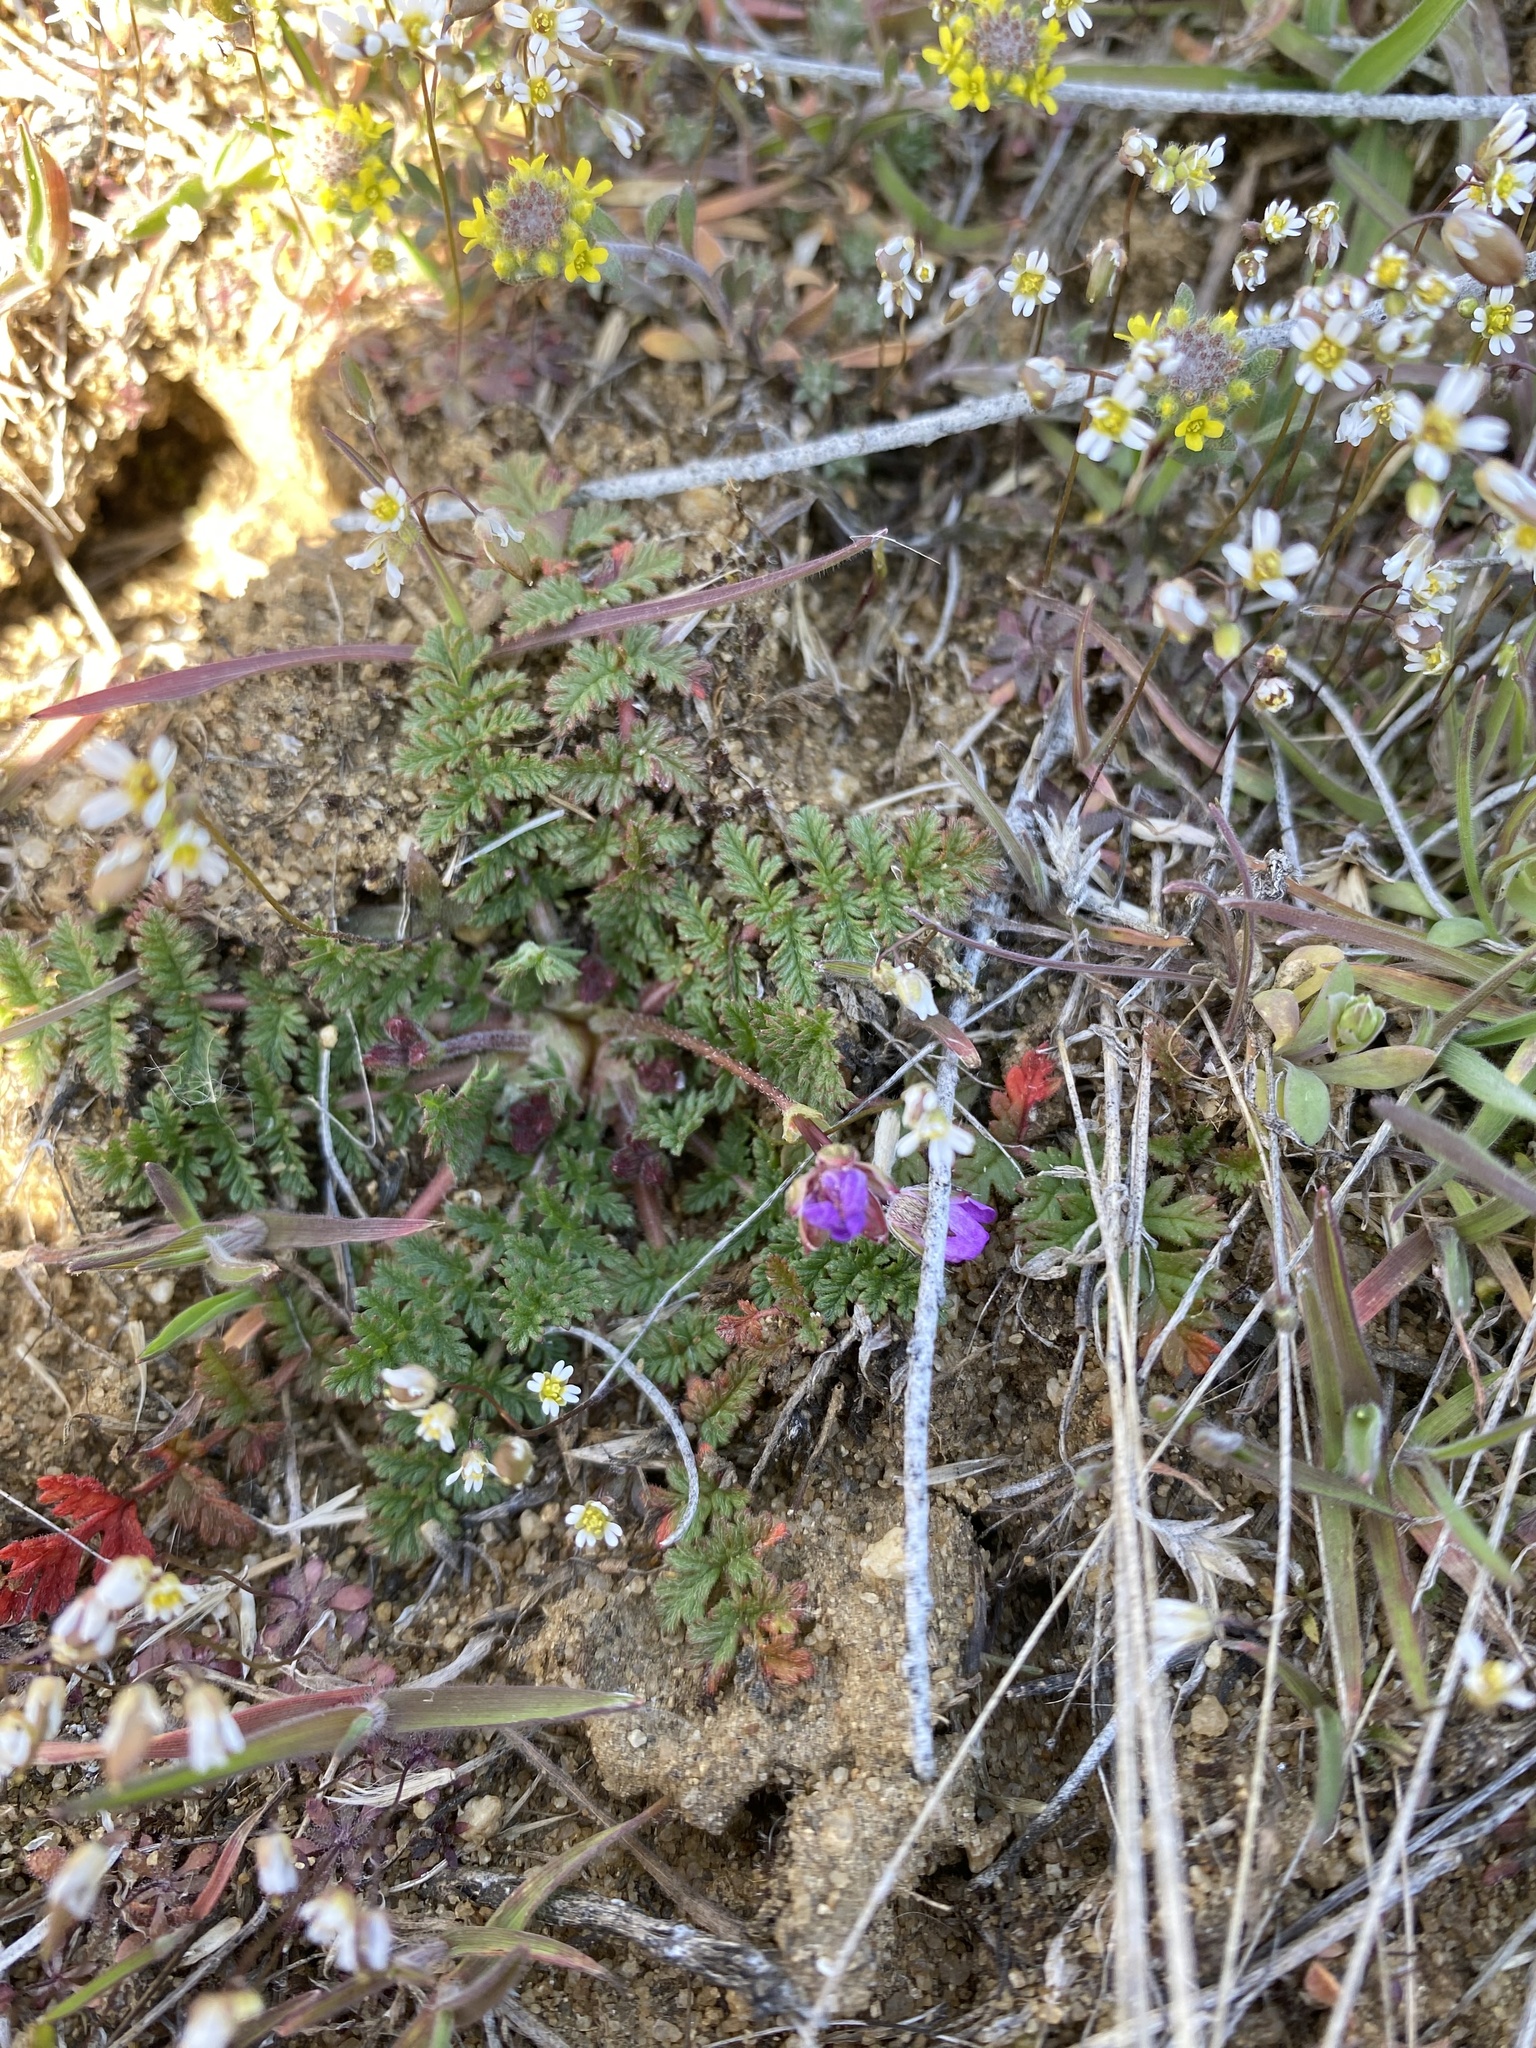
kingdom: Plantae
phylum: Tracheophyta
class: Magnoliopsida
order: Geraniales
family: Geraniaceae
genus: Erodium
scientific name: Erodium cicutarium
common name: Common stork's-bill
